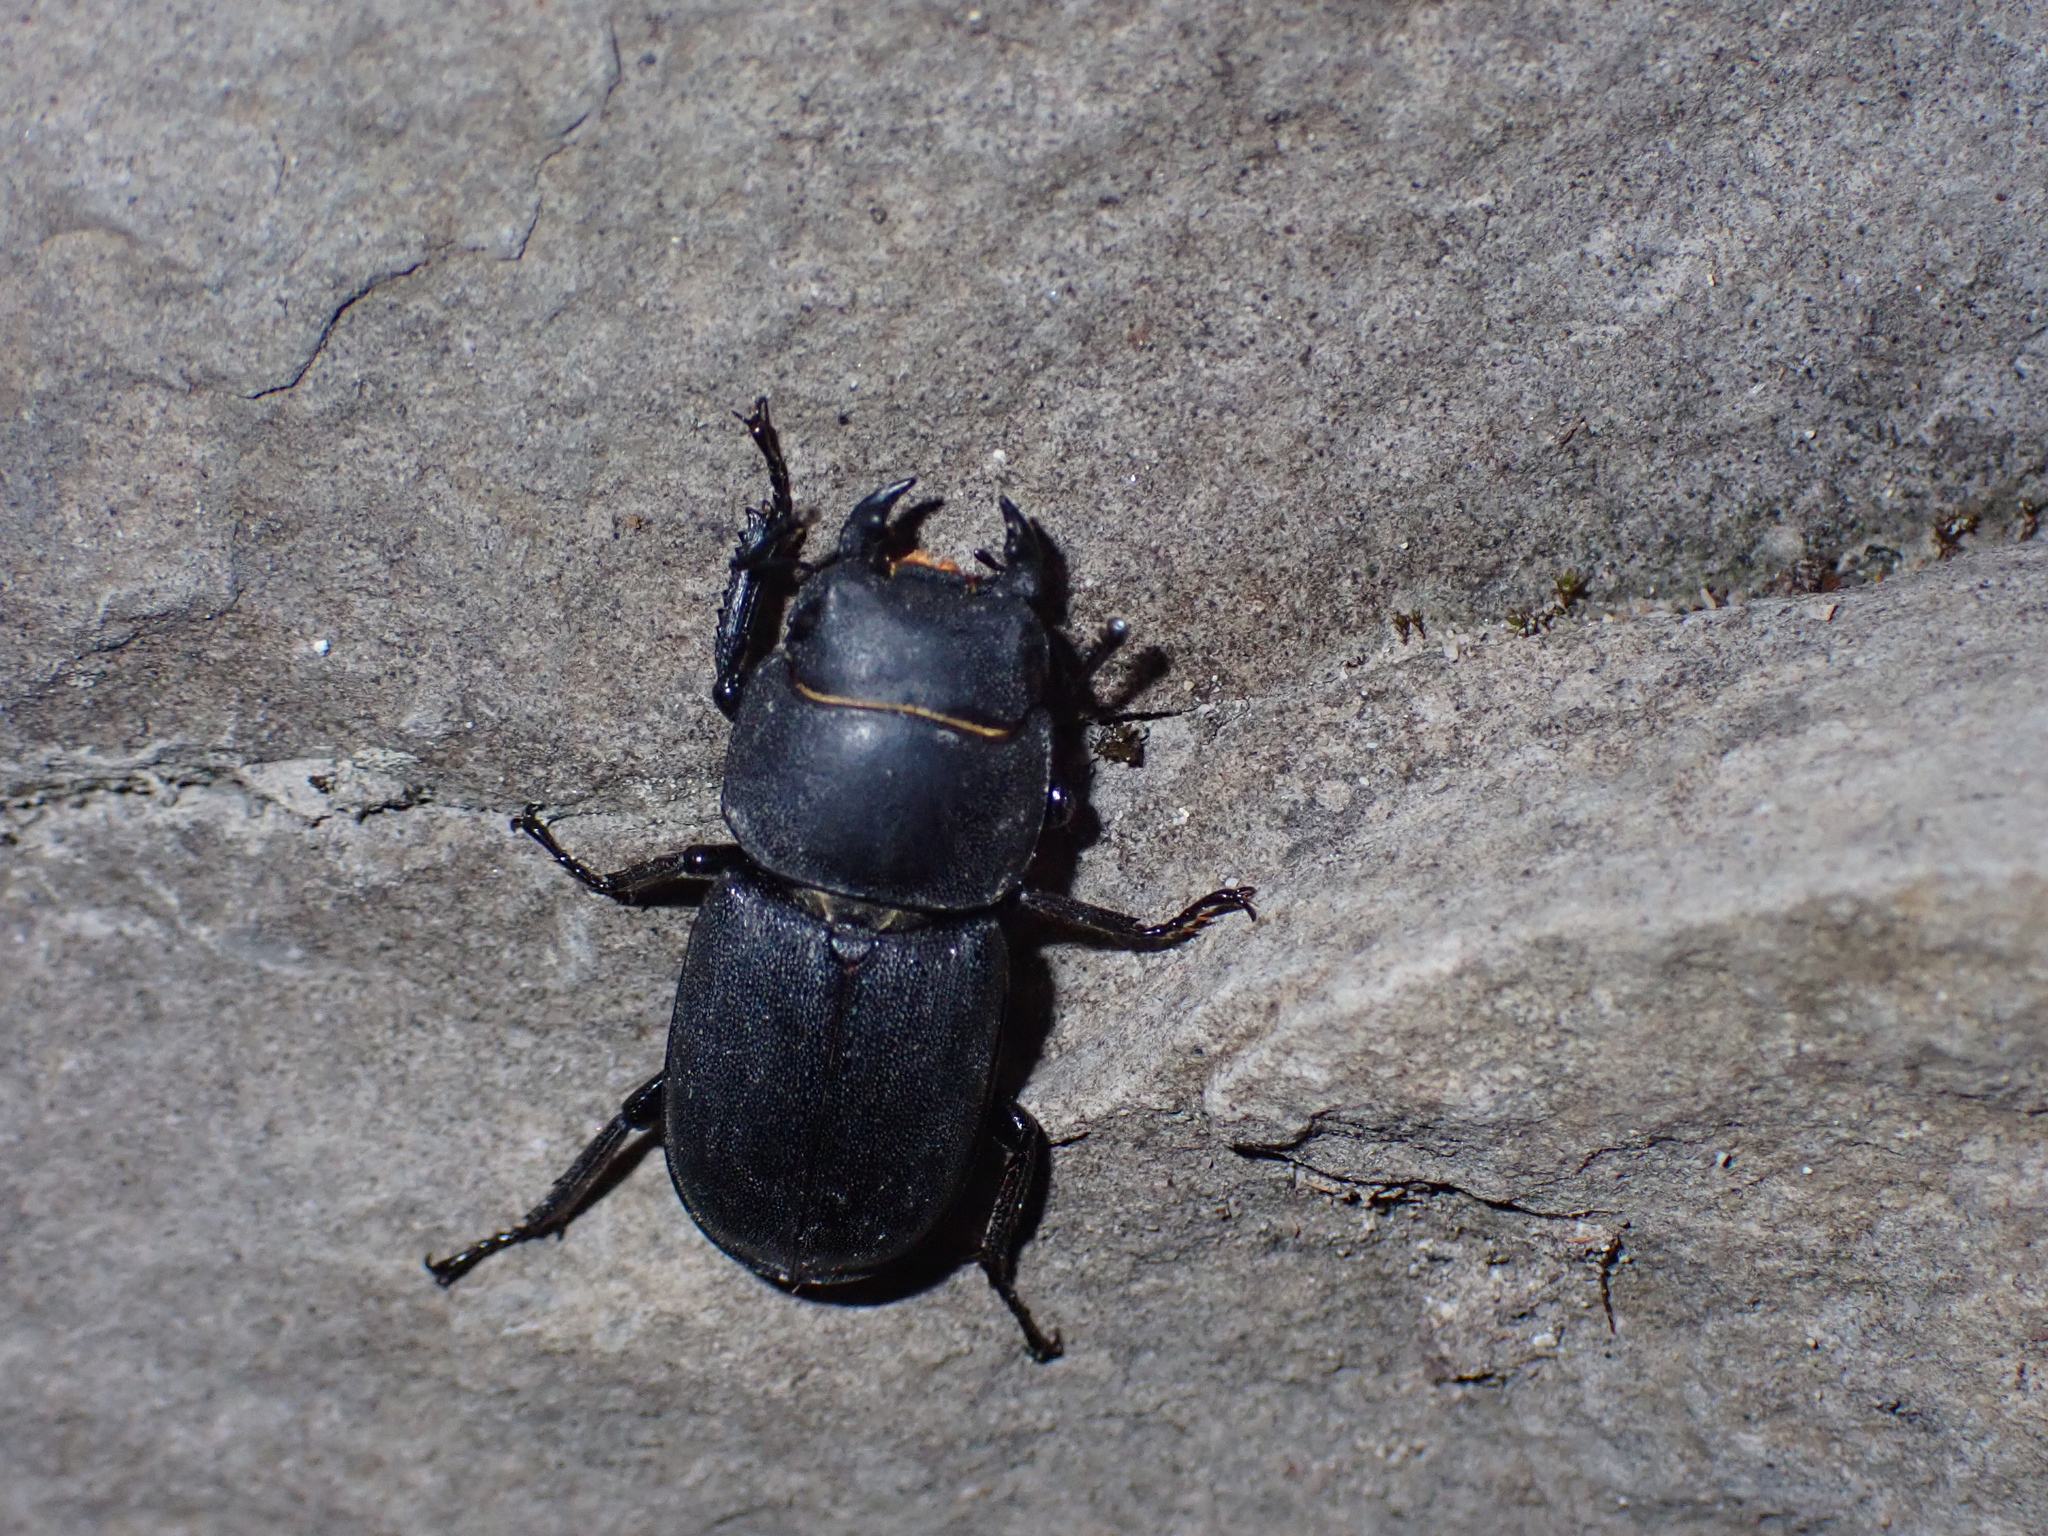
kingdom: Animalia
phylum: Arthropoda
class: Insecta
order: Coleoptera
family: Lucanidae
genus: Dorcus
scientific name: Dorcus parallelipipedus
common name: Lesser stag beetle
